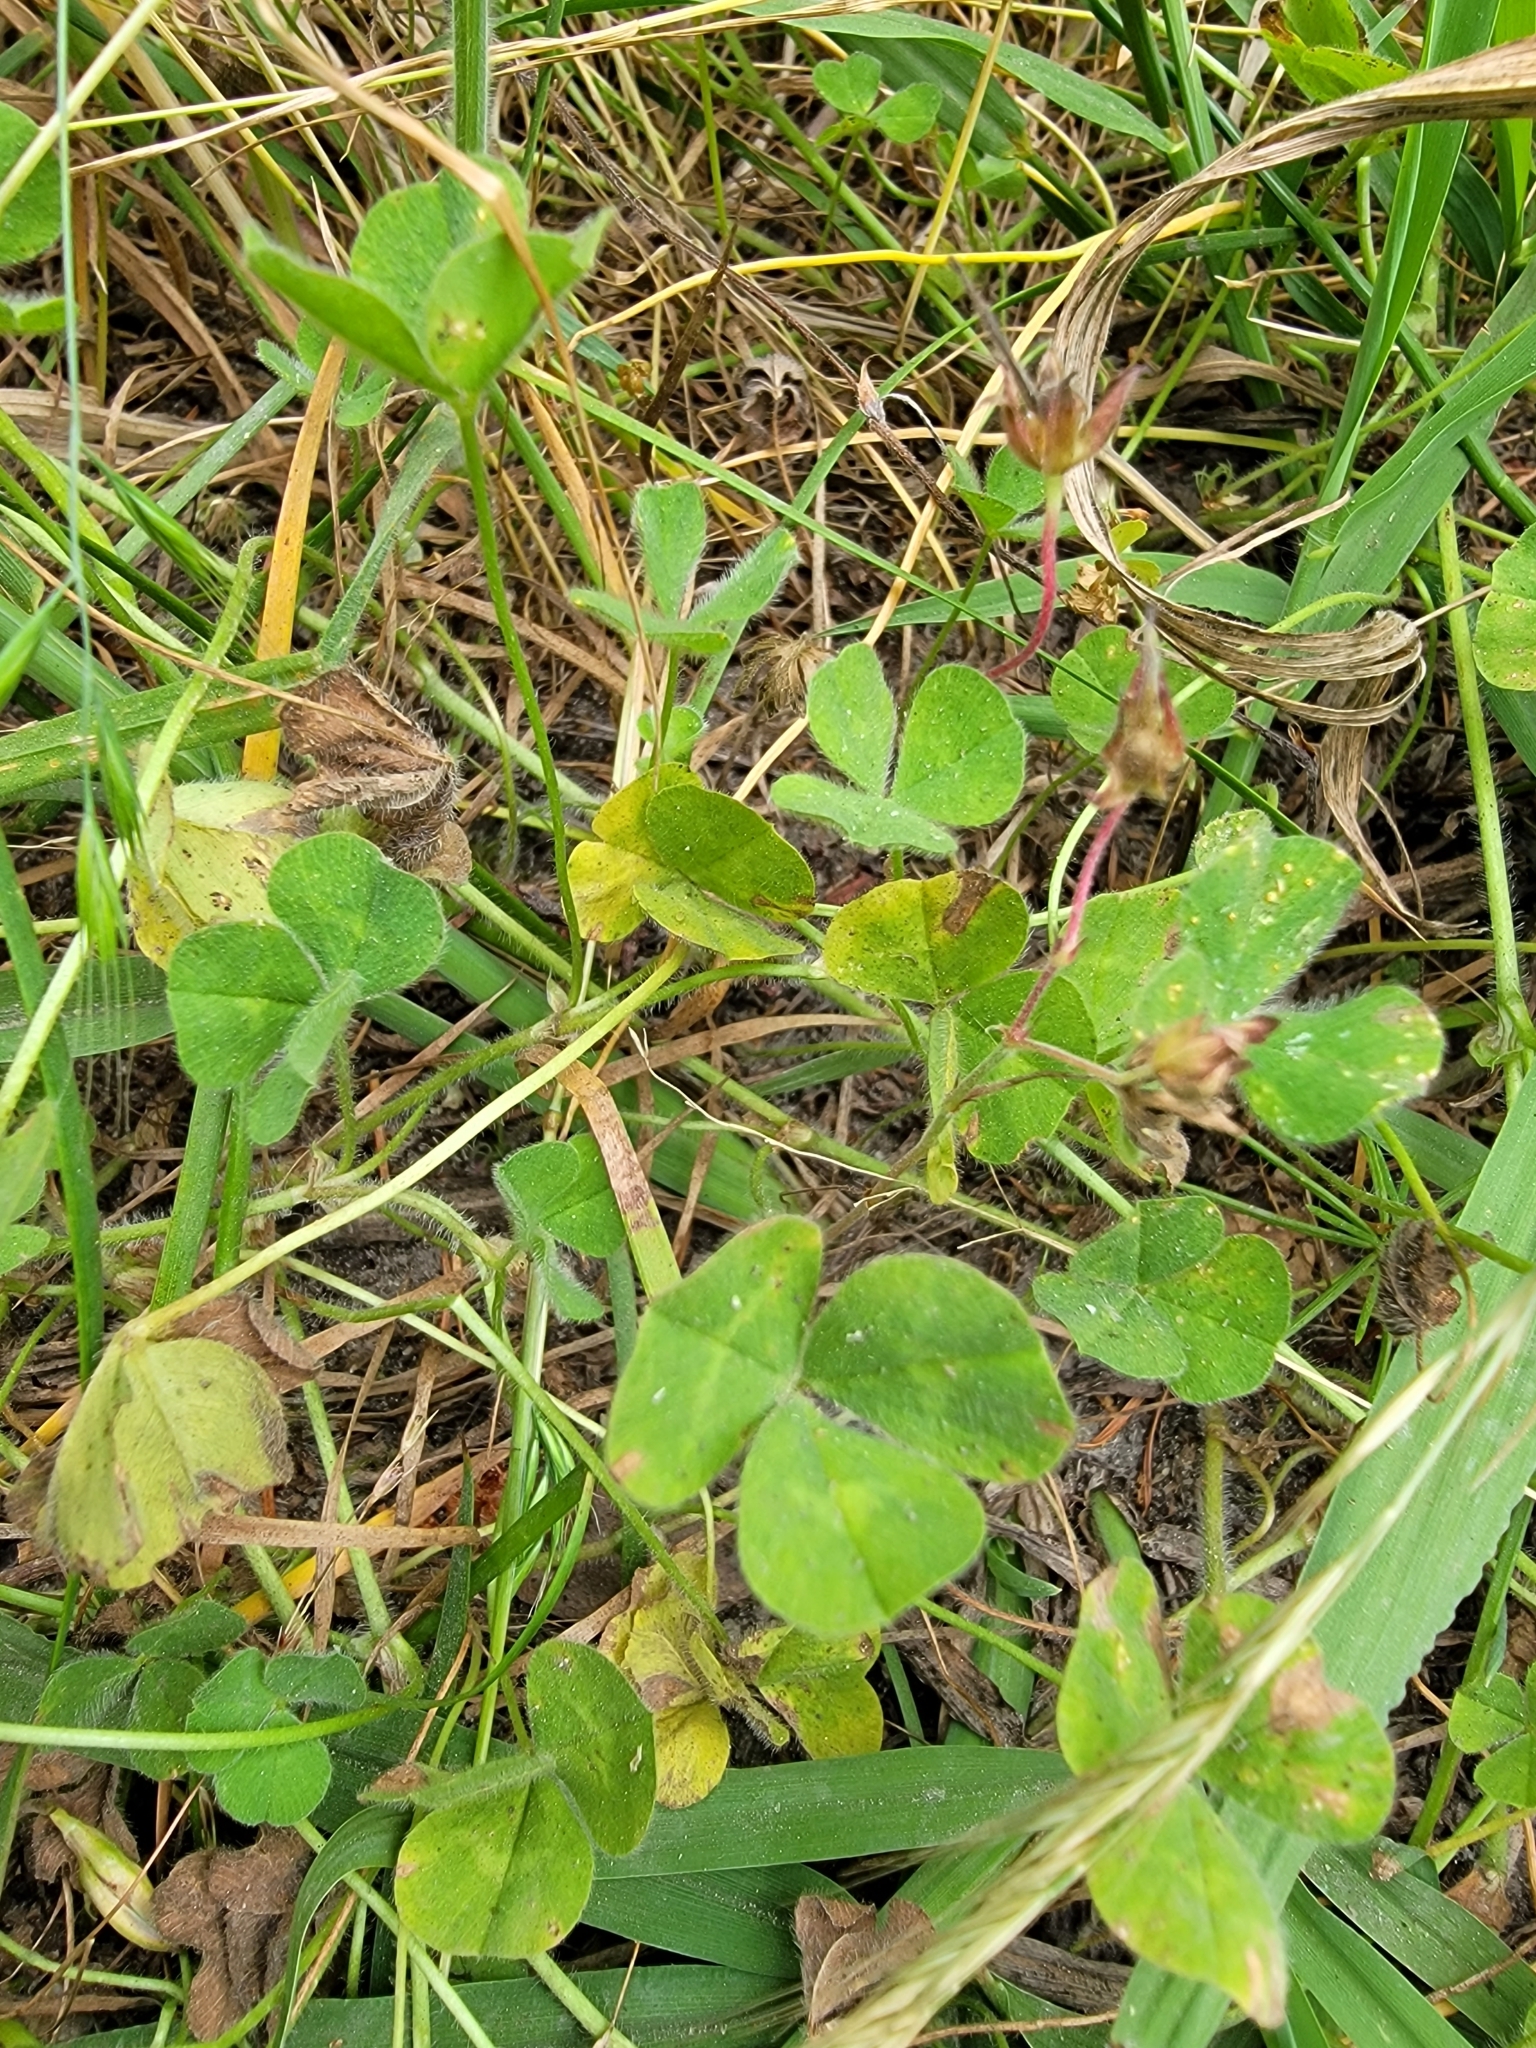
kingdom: Plantae
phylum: Tracheophyta
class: Magnoliopsida
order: Fabales
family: Fabaceae
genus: Trifolium
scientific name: Trifolium subterraneum
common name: Subterranean clover
